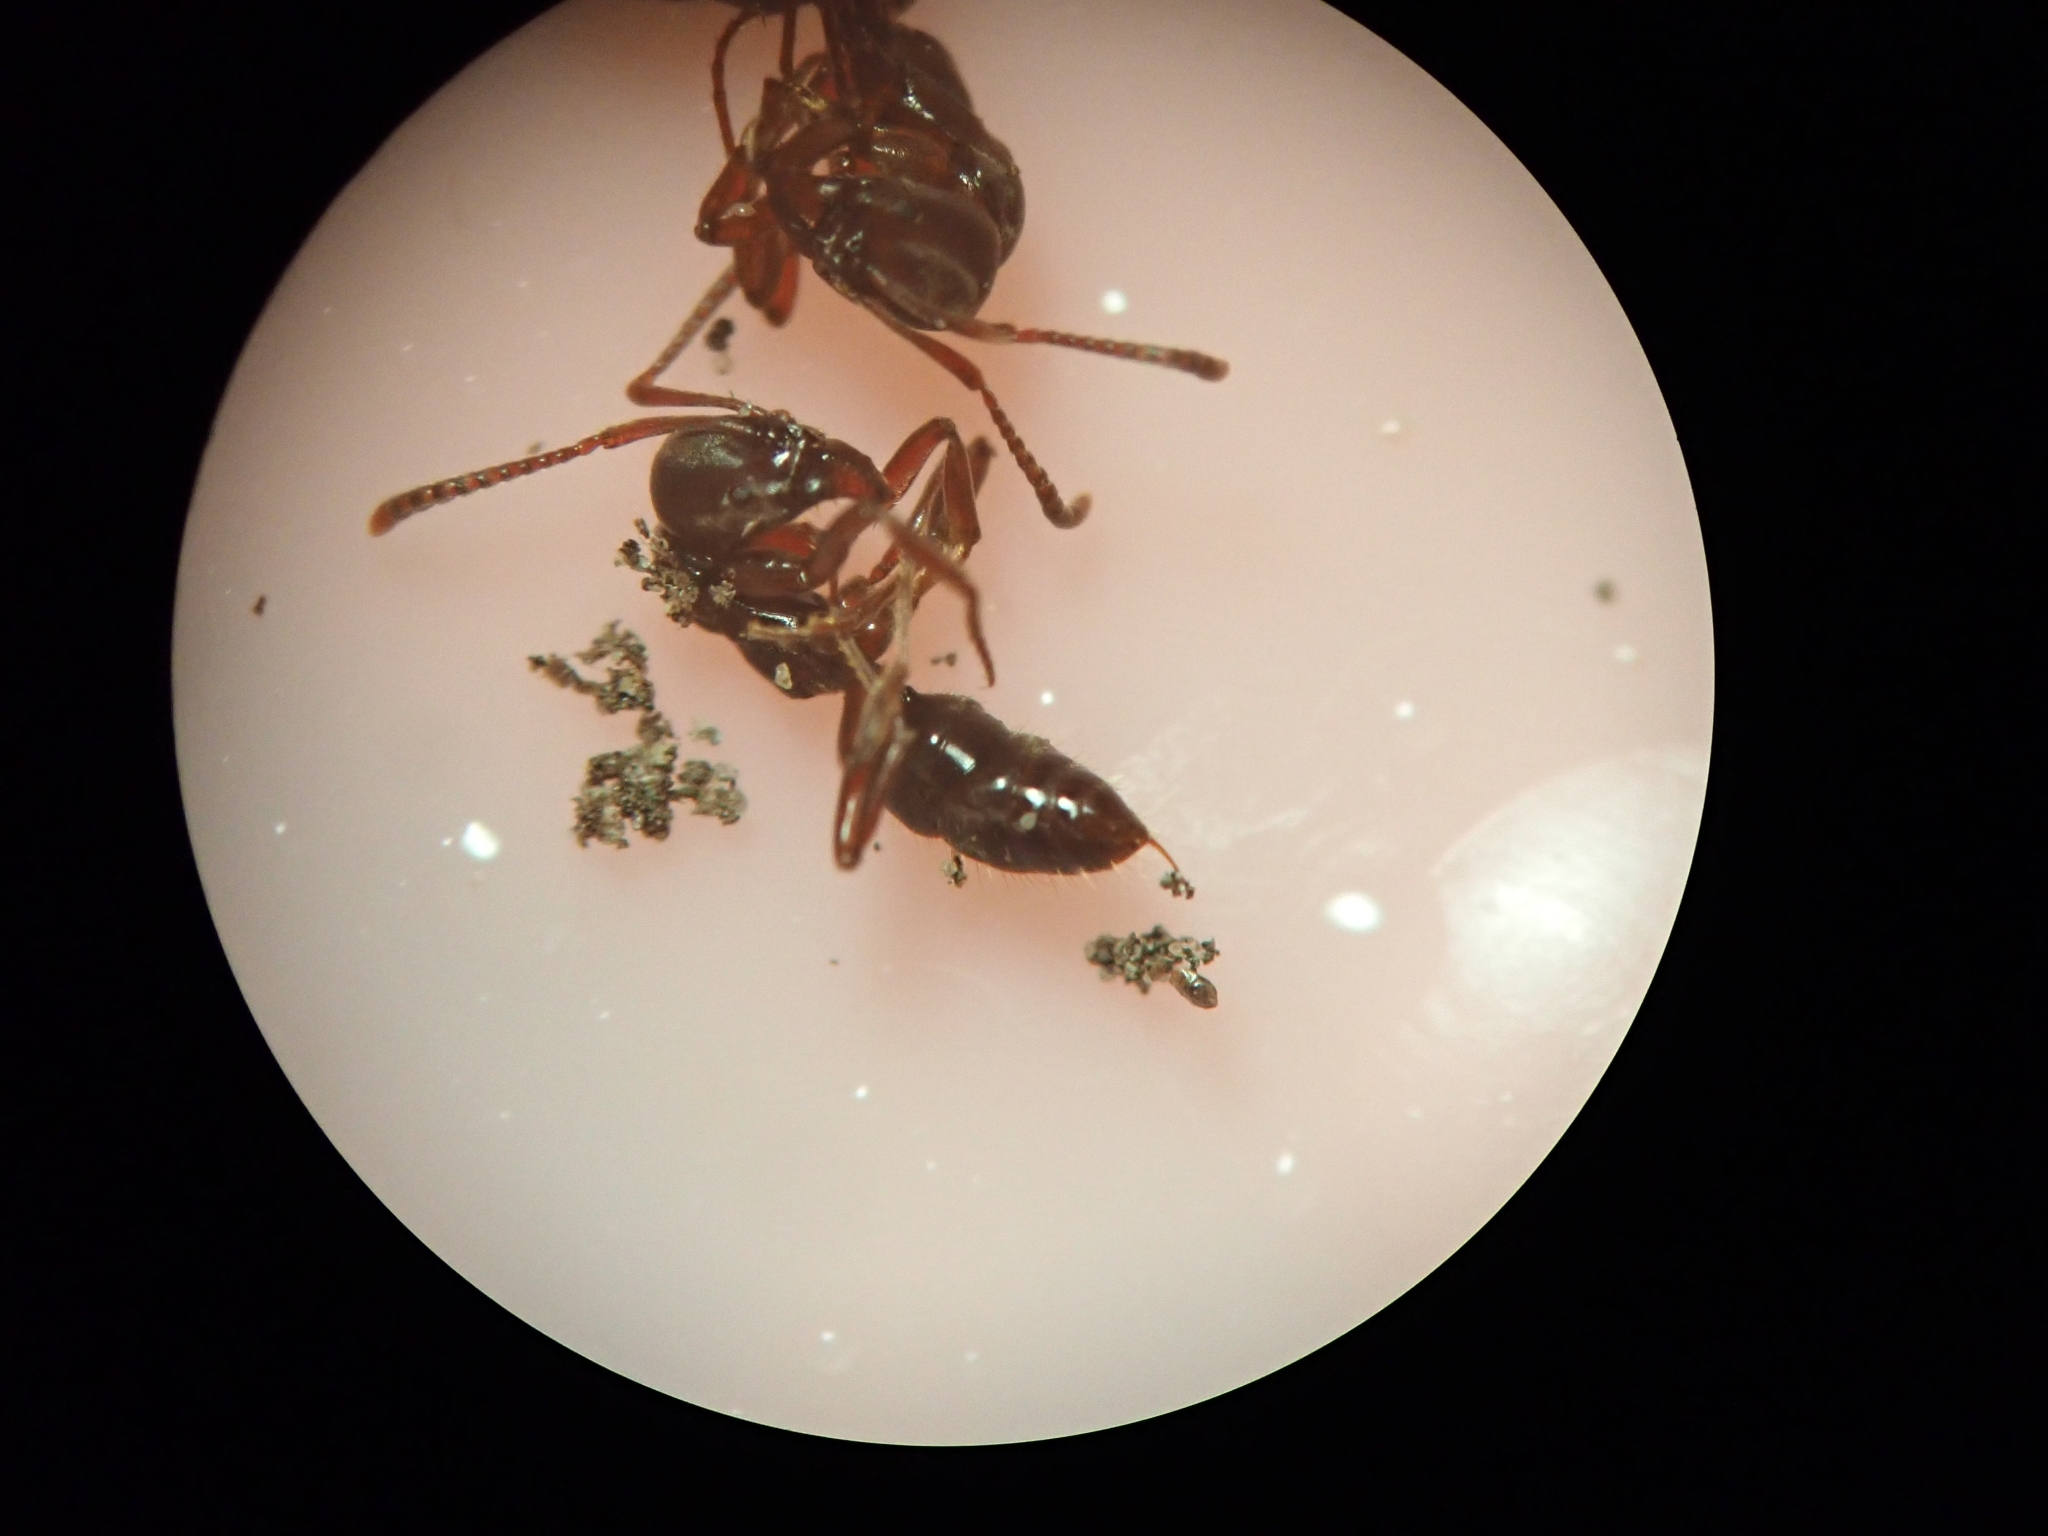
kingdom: Animalia
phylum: Arthropoda
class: Insecta
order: Hymenoptera
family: Formicidae
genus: Austroponera
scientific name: Austroponera
